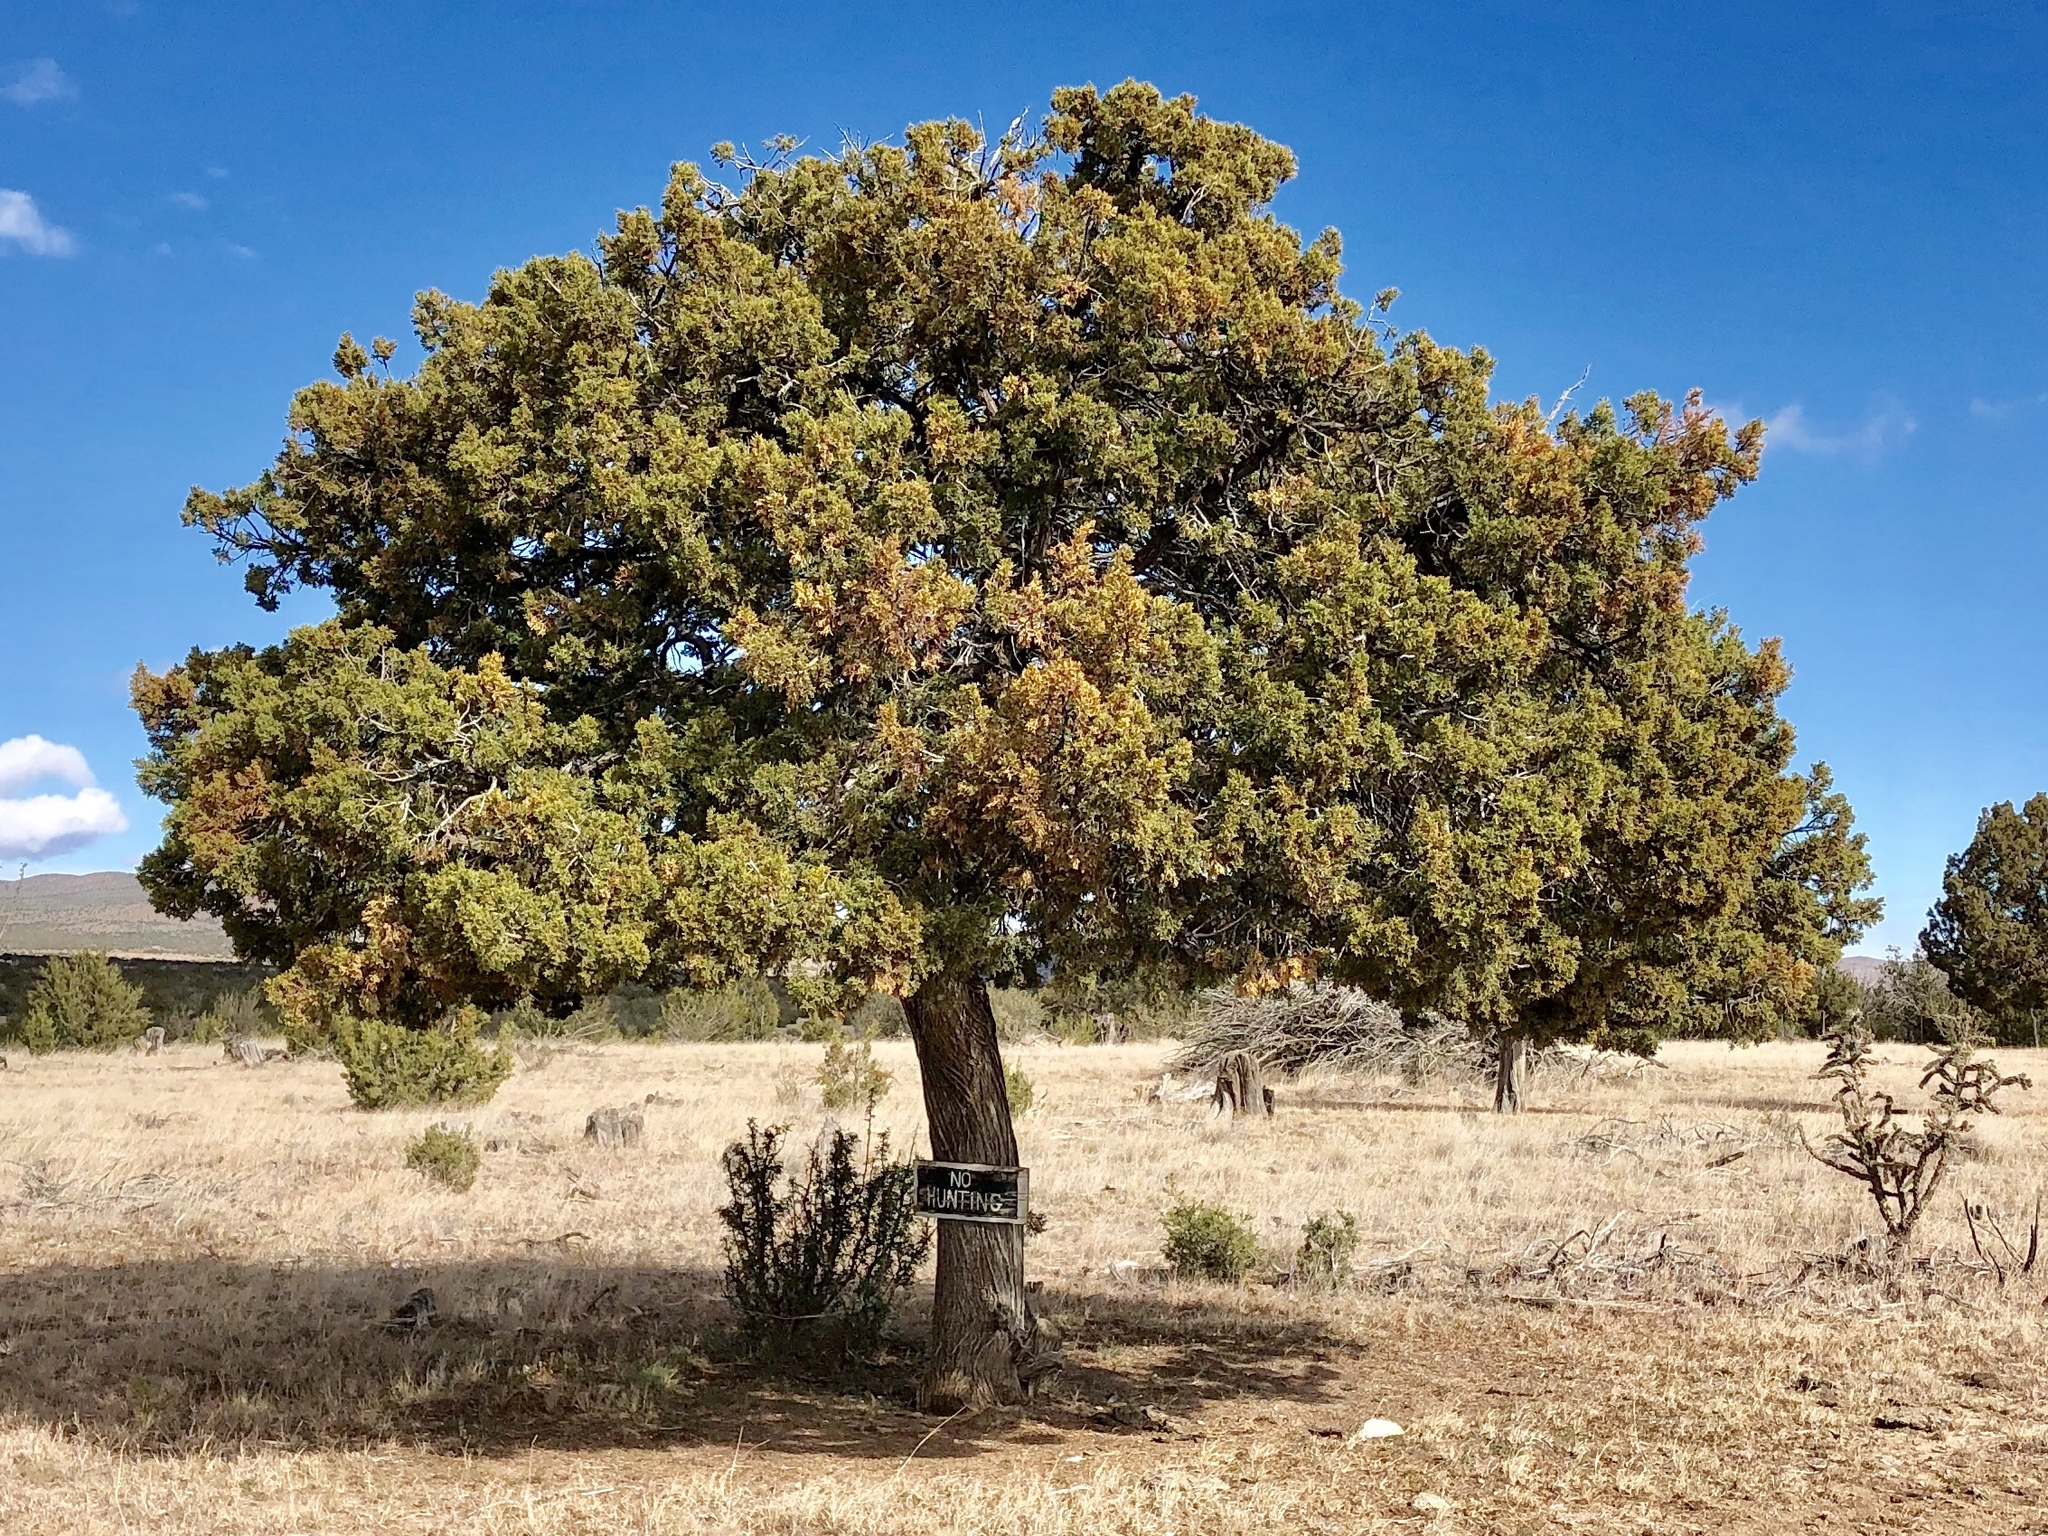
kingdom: Plantae
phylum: Tracheophyta
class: Pinopsida
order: Pinales
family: Cupressaceae
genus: Juniperus
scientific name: Juniperus monosperma
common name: One-seed juniper
